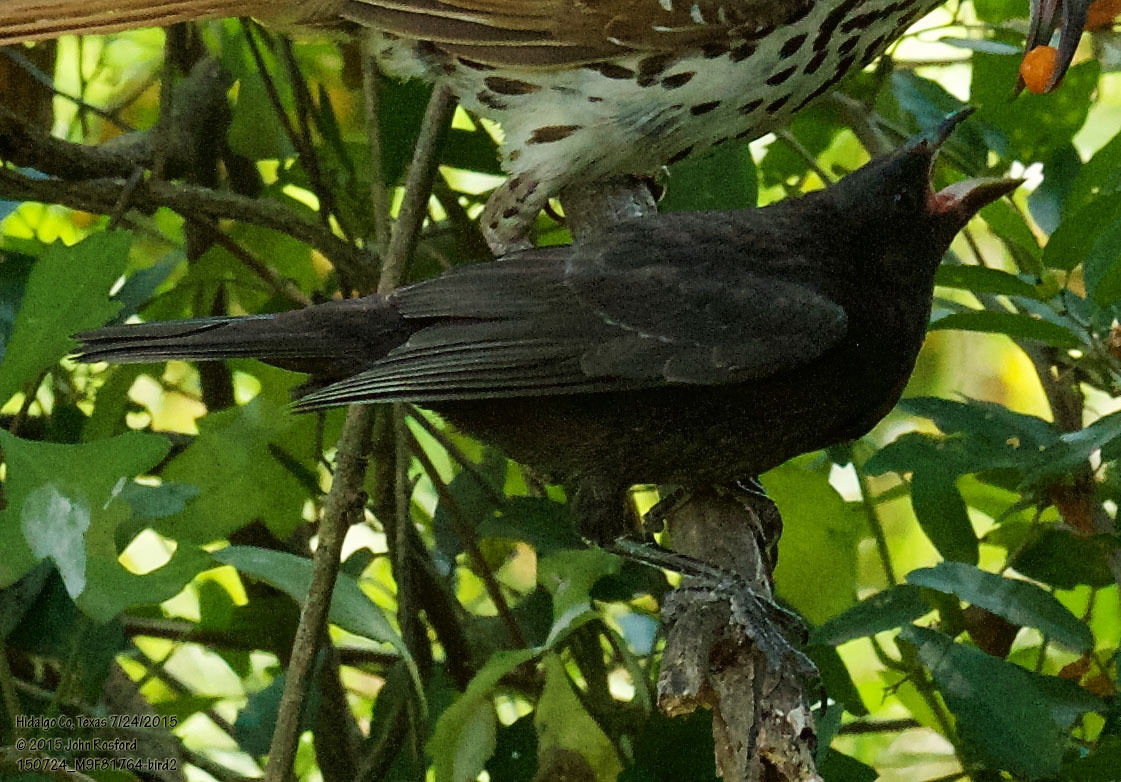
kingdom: Animalia
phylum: Chordata
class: Aves
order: Passeriformes
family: Icteridae
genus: Molothrus
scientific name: Molothrus aeneus
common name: Bronzed cowbird
